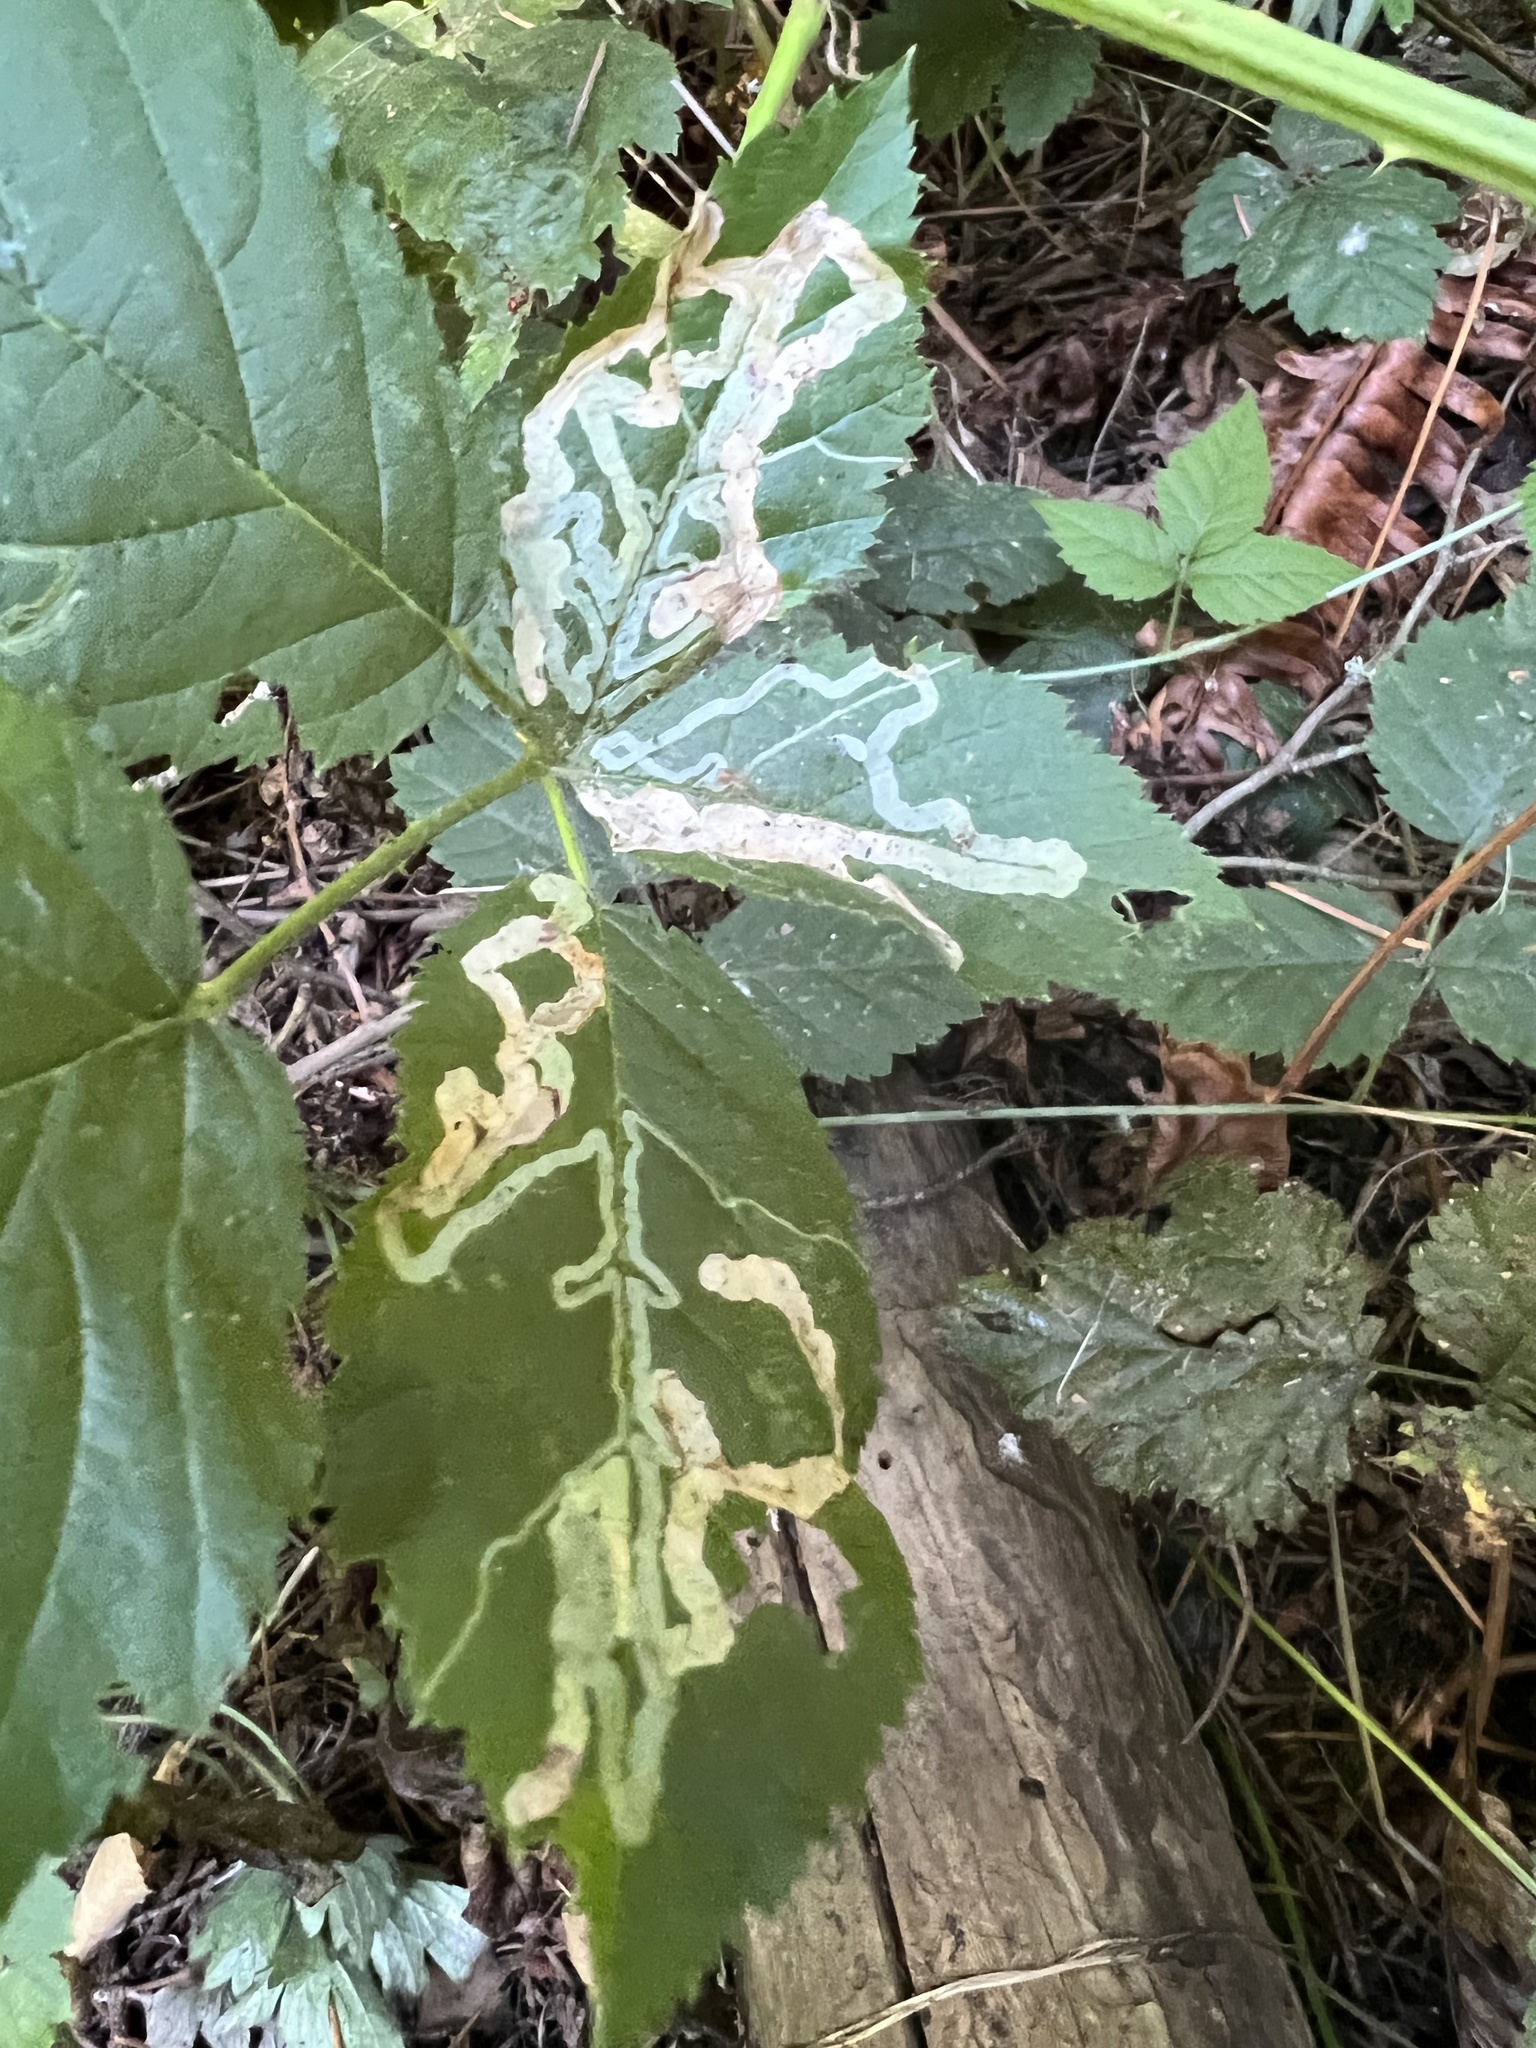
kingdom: Animalia
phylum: Arthropoda
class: Insecta
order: Diptera
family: Agromyzidae
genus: Agromyza
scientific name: Agromyza vockerothi
